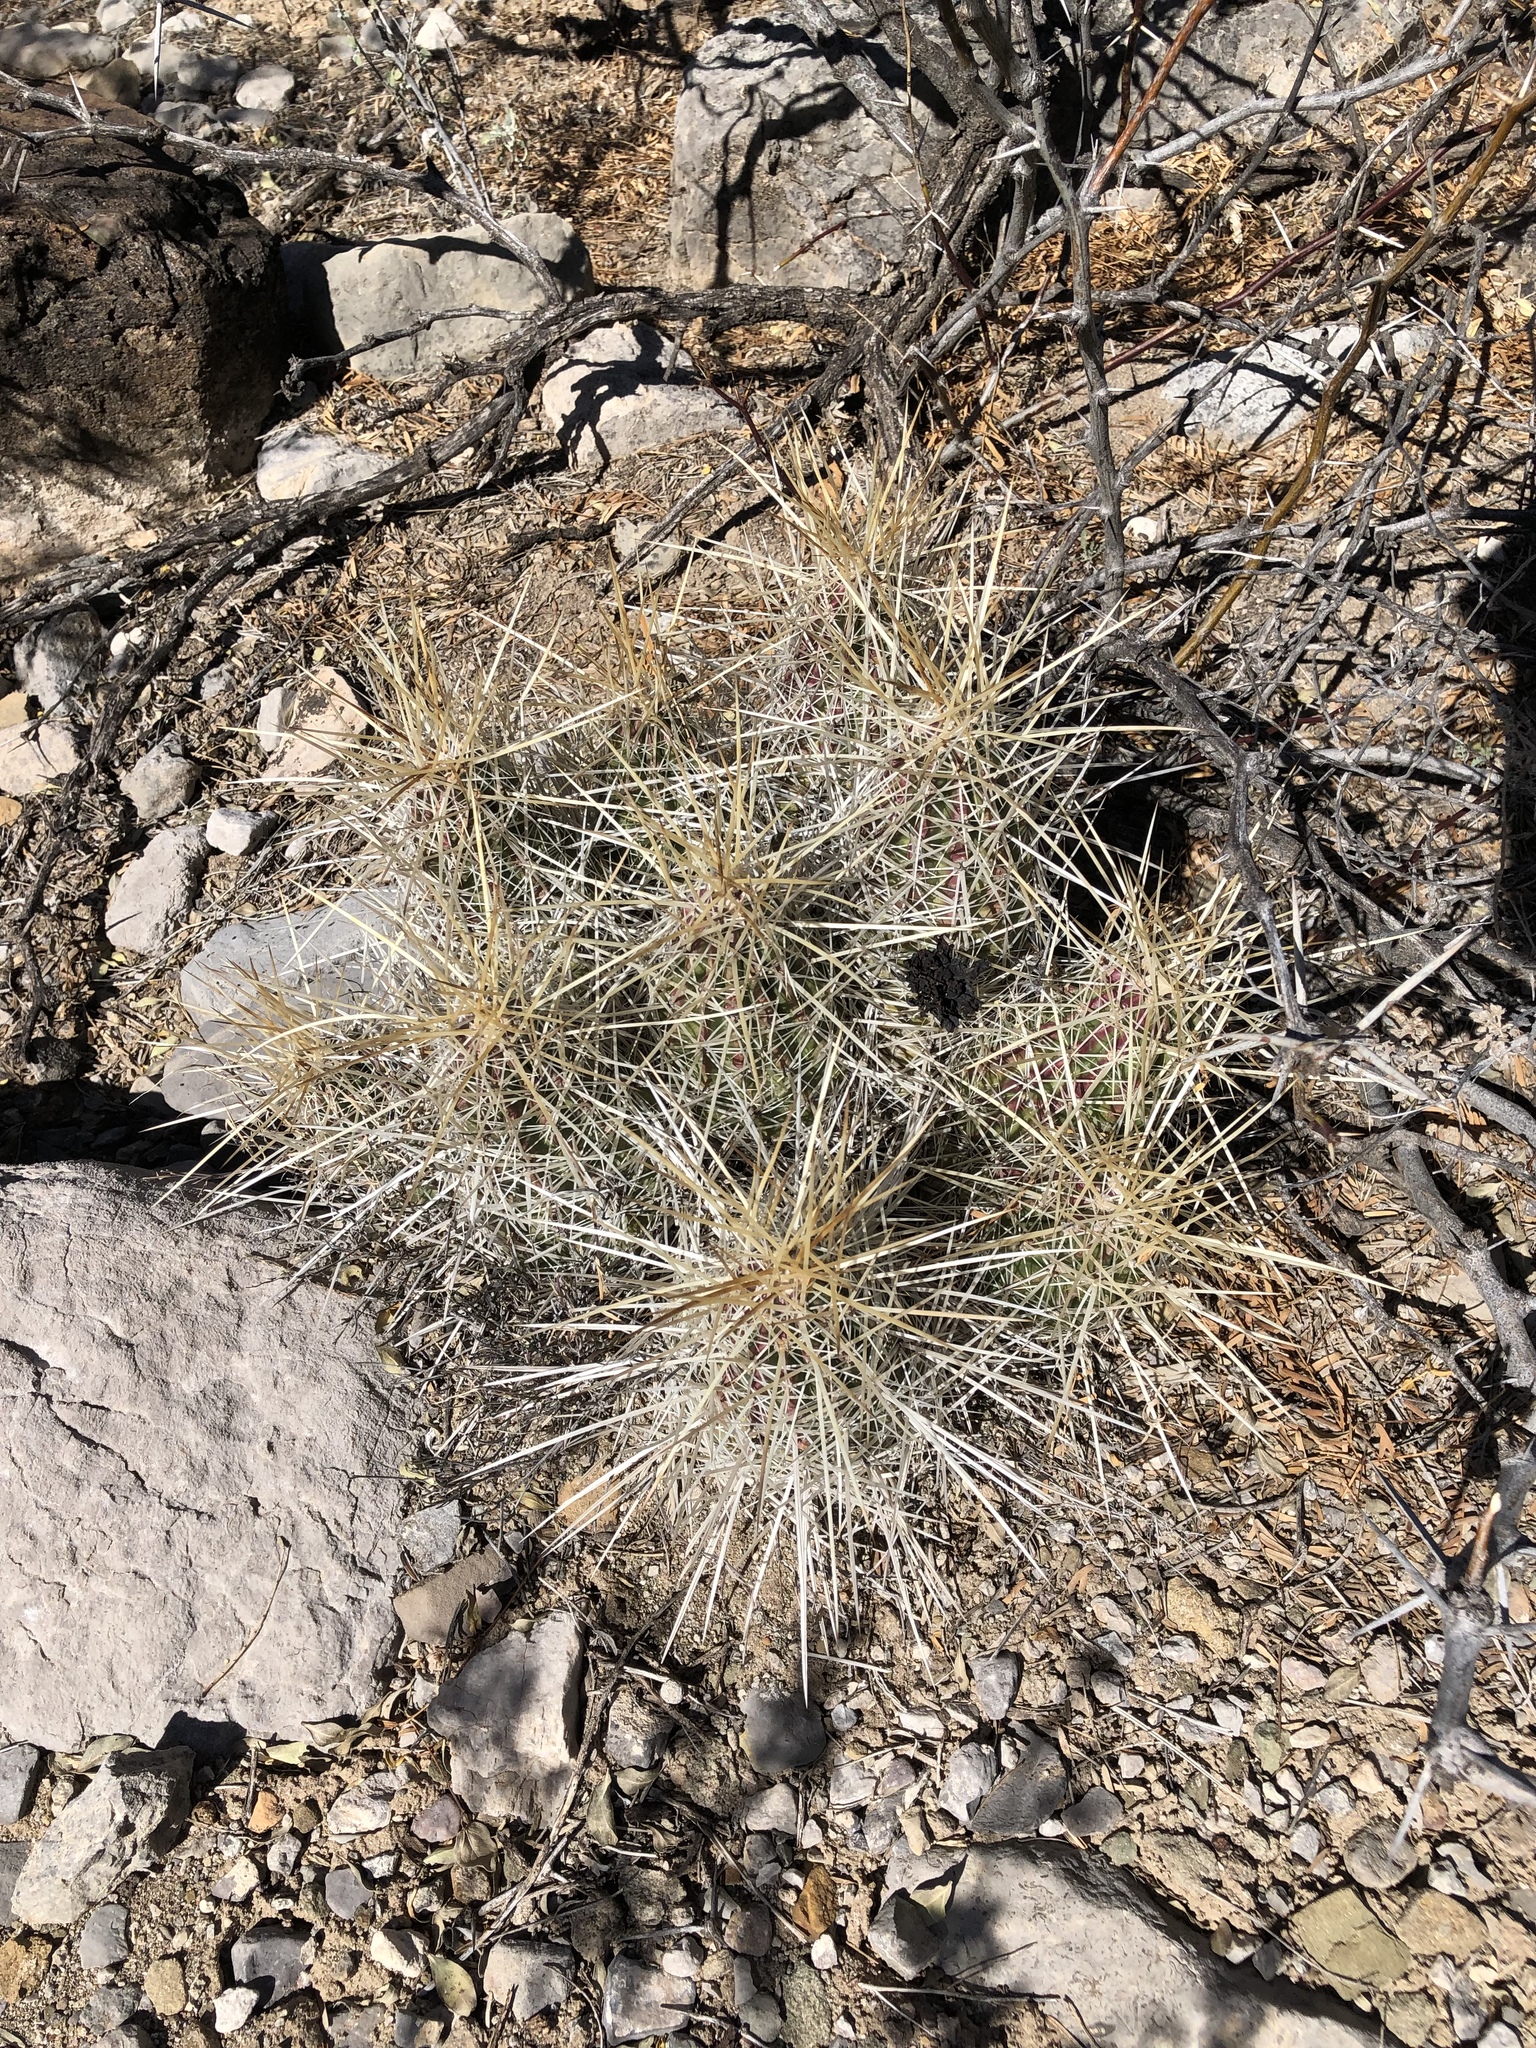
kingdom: Plantae
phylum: Tracheophyta
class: Magnoliopsida
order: Caryophyllales
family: Cactaceae
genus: Echinocereus
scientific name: Echinocereus stramineus
